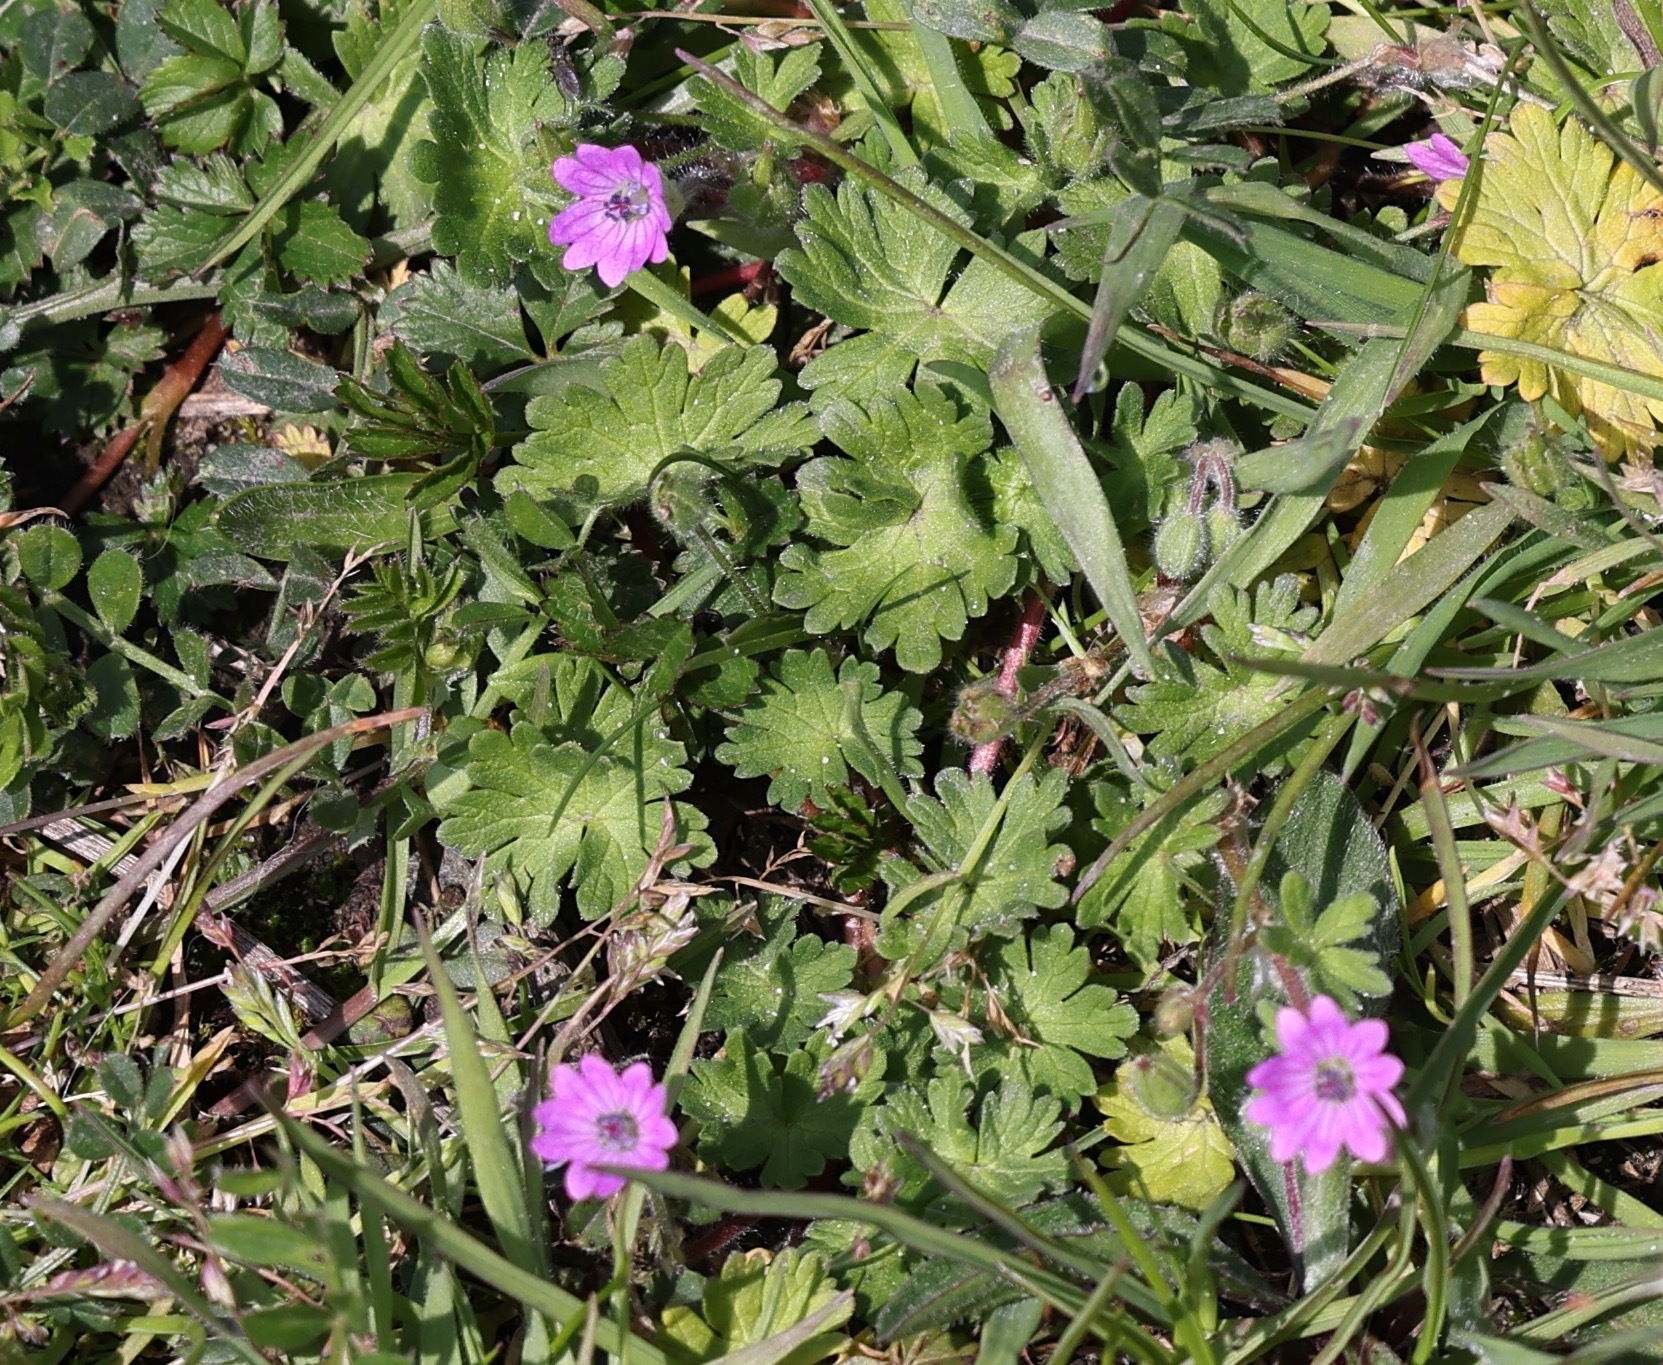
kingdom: Plantae
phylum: Tracheophyta
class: Magnoliopsida
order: Geraniales
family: Geraniaceae
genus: Geranium
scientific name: Geranium molle
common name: Dove's-foot crane's-bill
